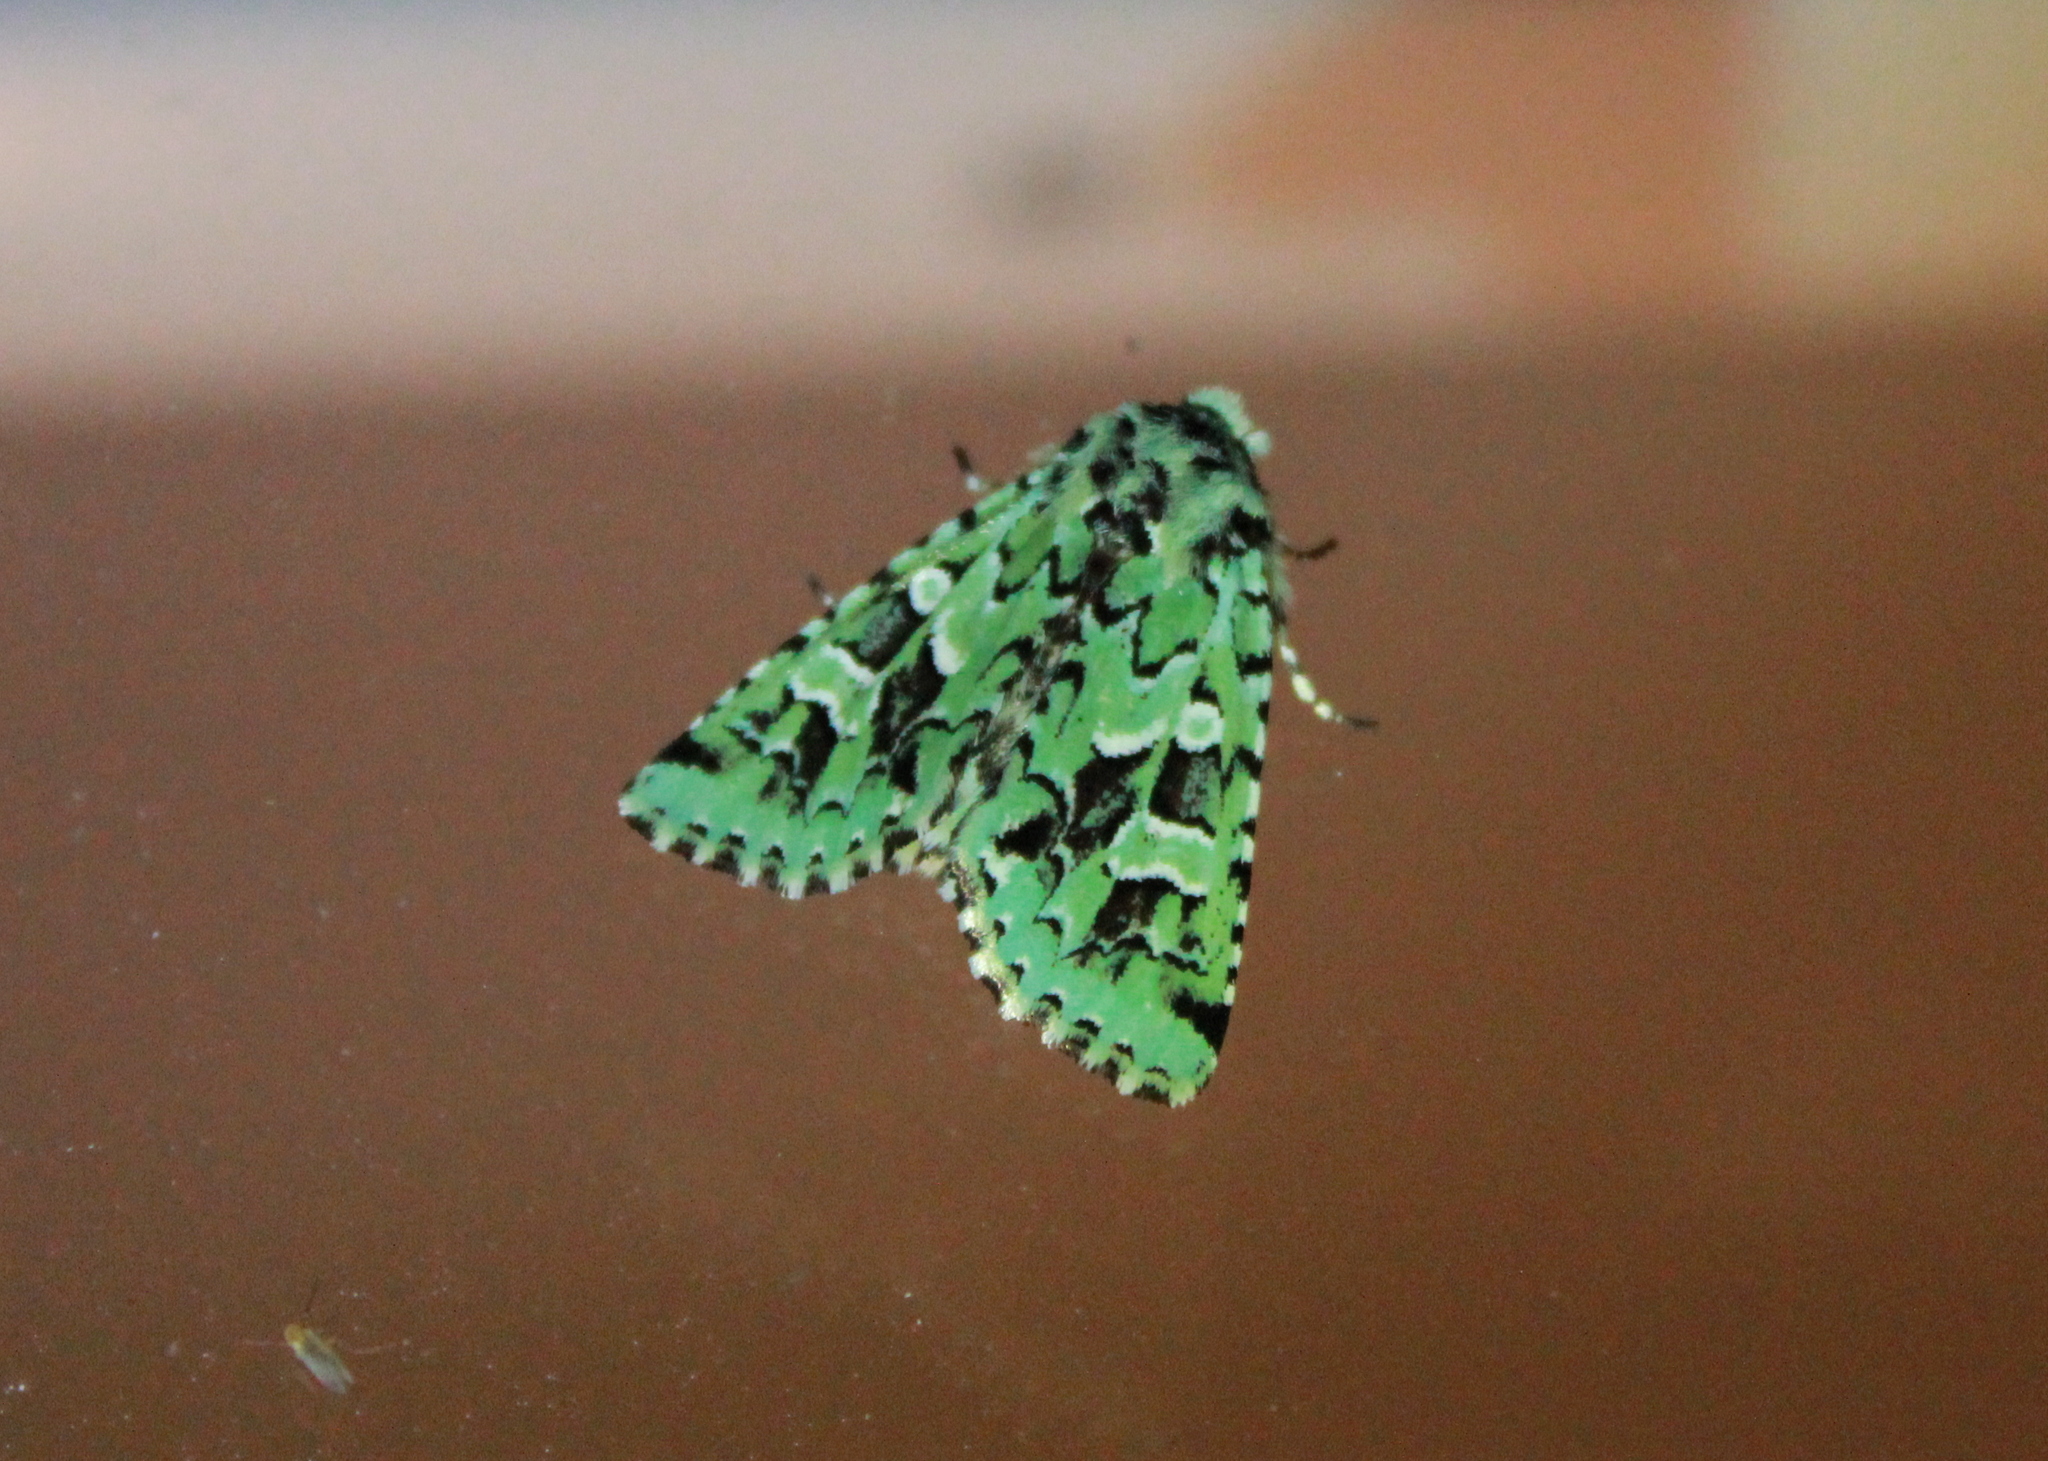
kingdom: Animalia
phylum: Arthropoda
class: Insecta
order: Lepidoptera
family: Noctuidae
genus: Feralia
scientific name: Feralia comstocki
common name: Comstock's sallow
